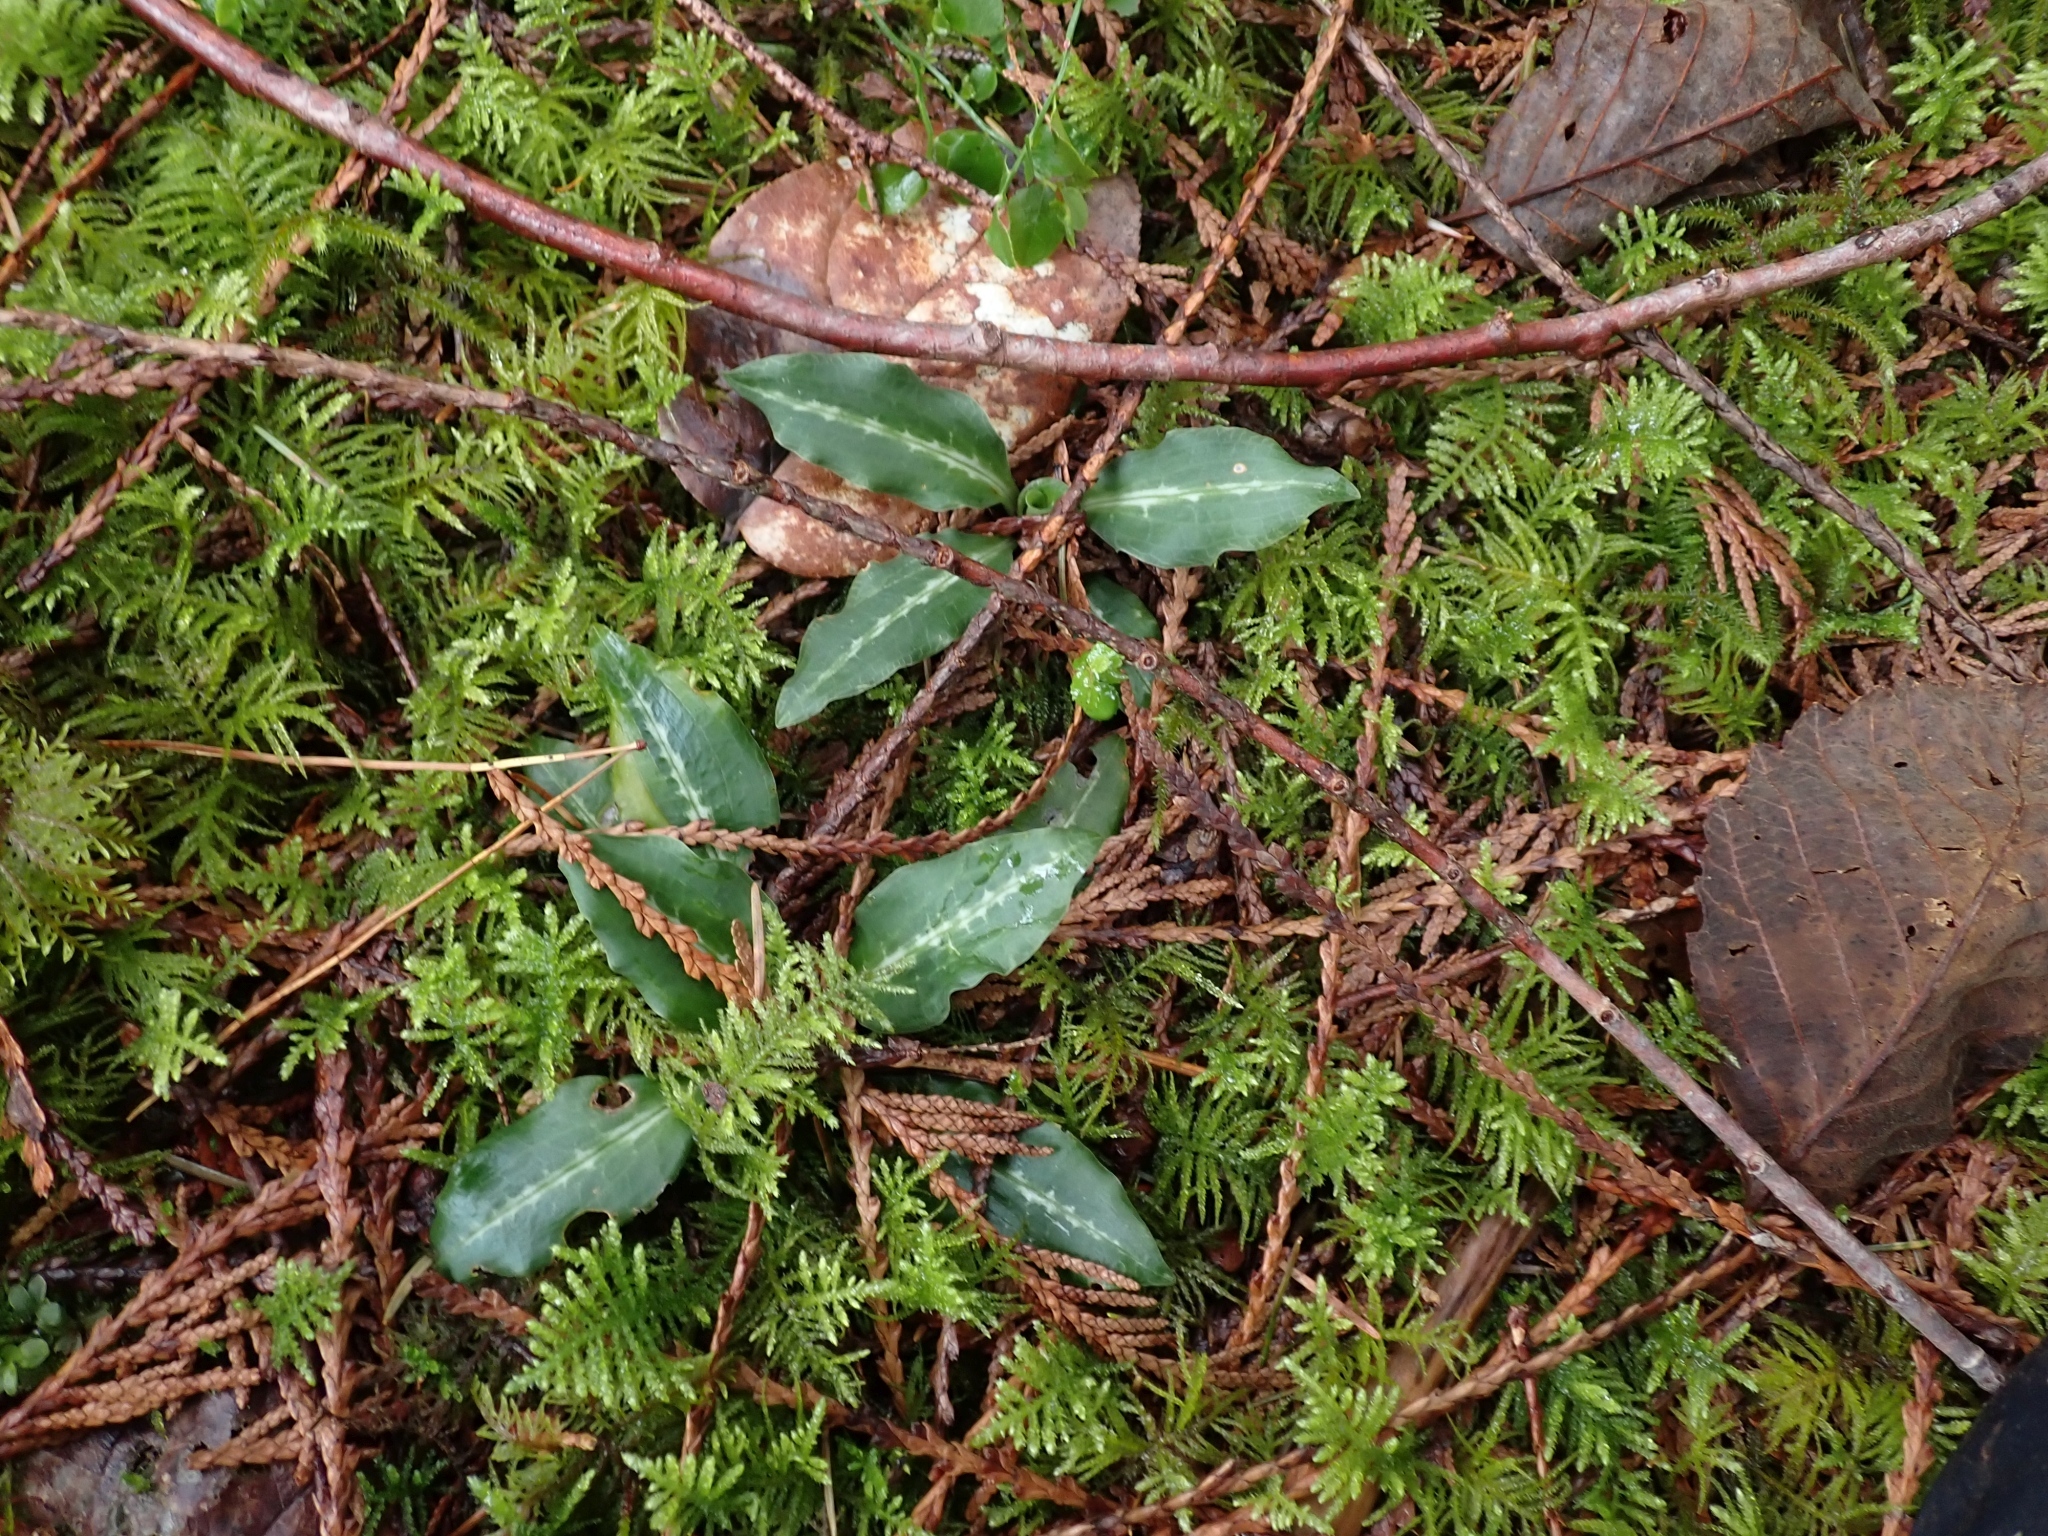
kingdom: Plantae
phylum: Tracheophyta
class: Liliopsida
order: Asparagales
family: Orchidaceae
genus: Goodyera
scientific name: Goodyera oblongifolia
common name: Giant rattlesnake-plantain
